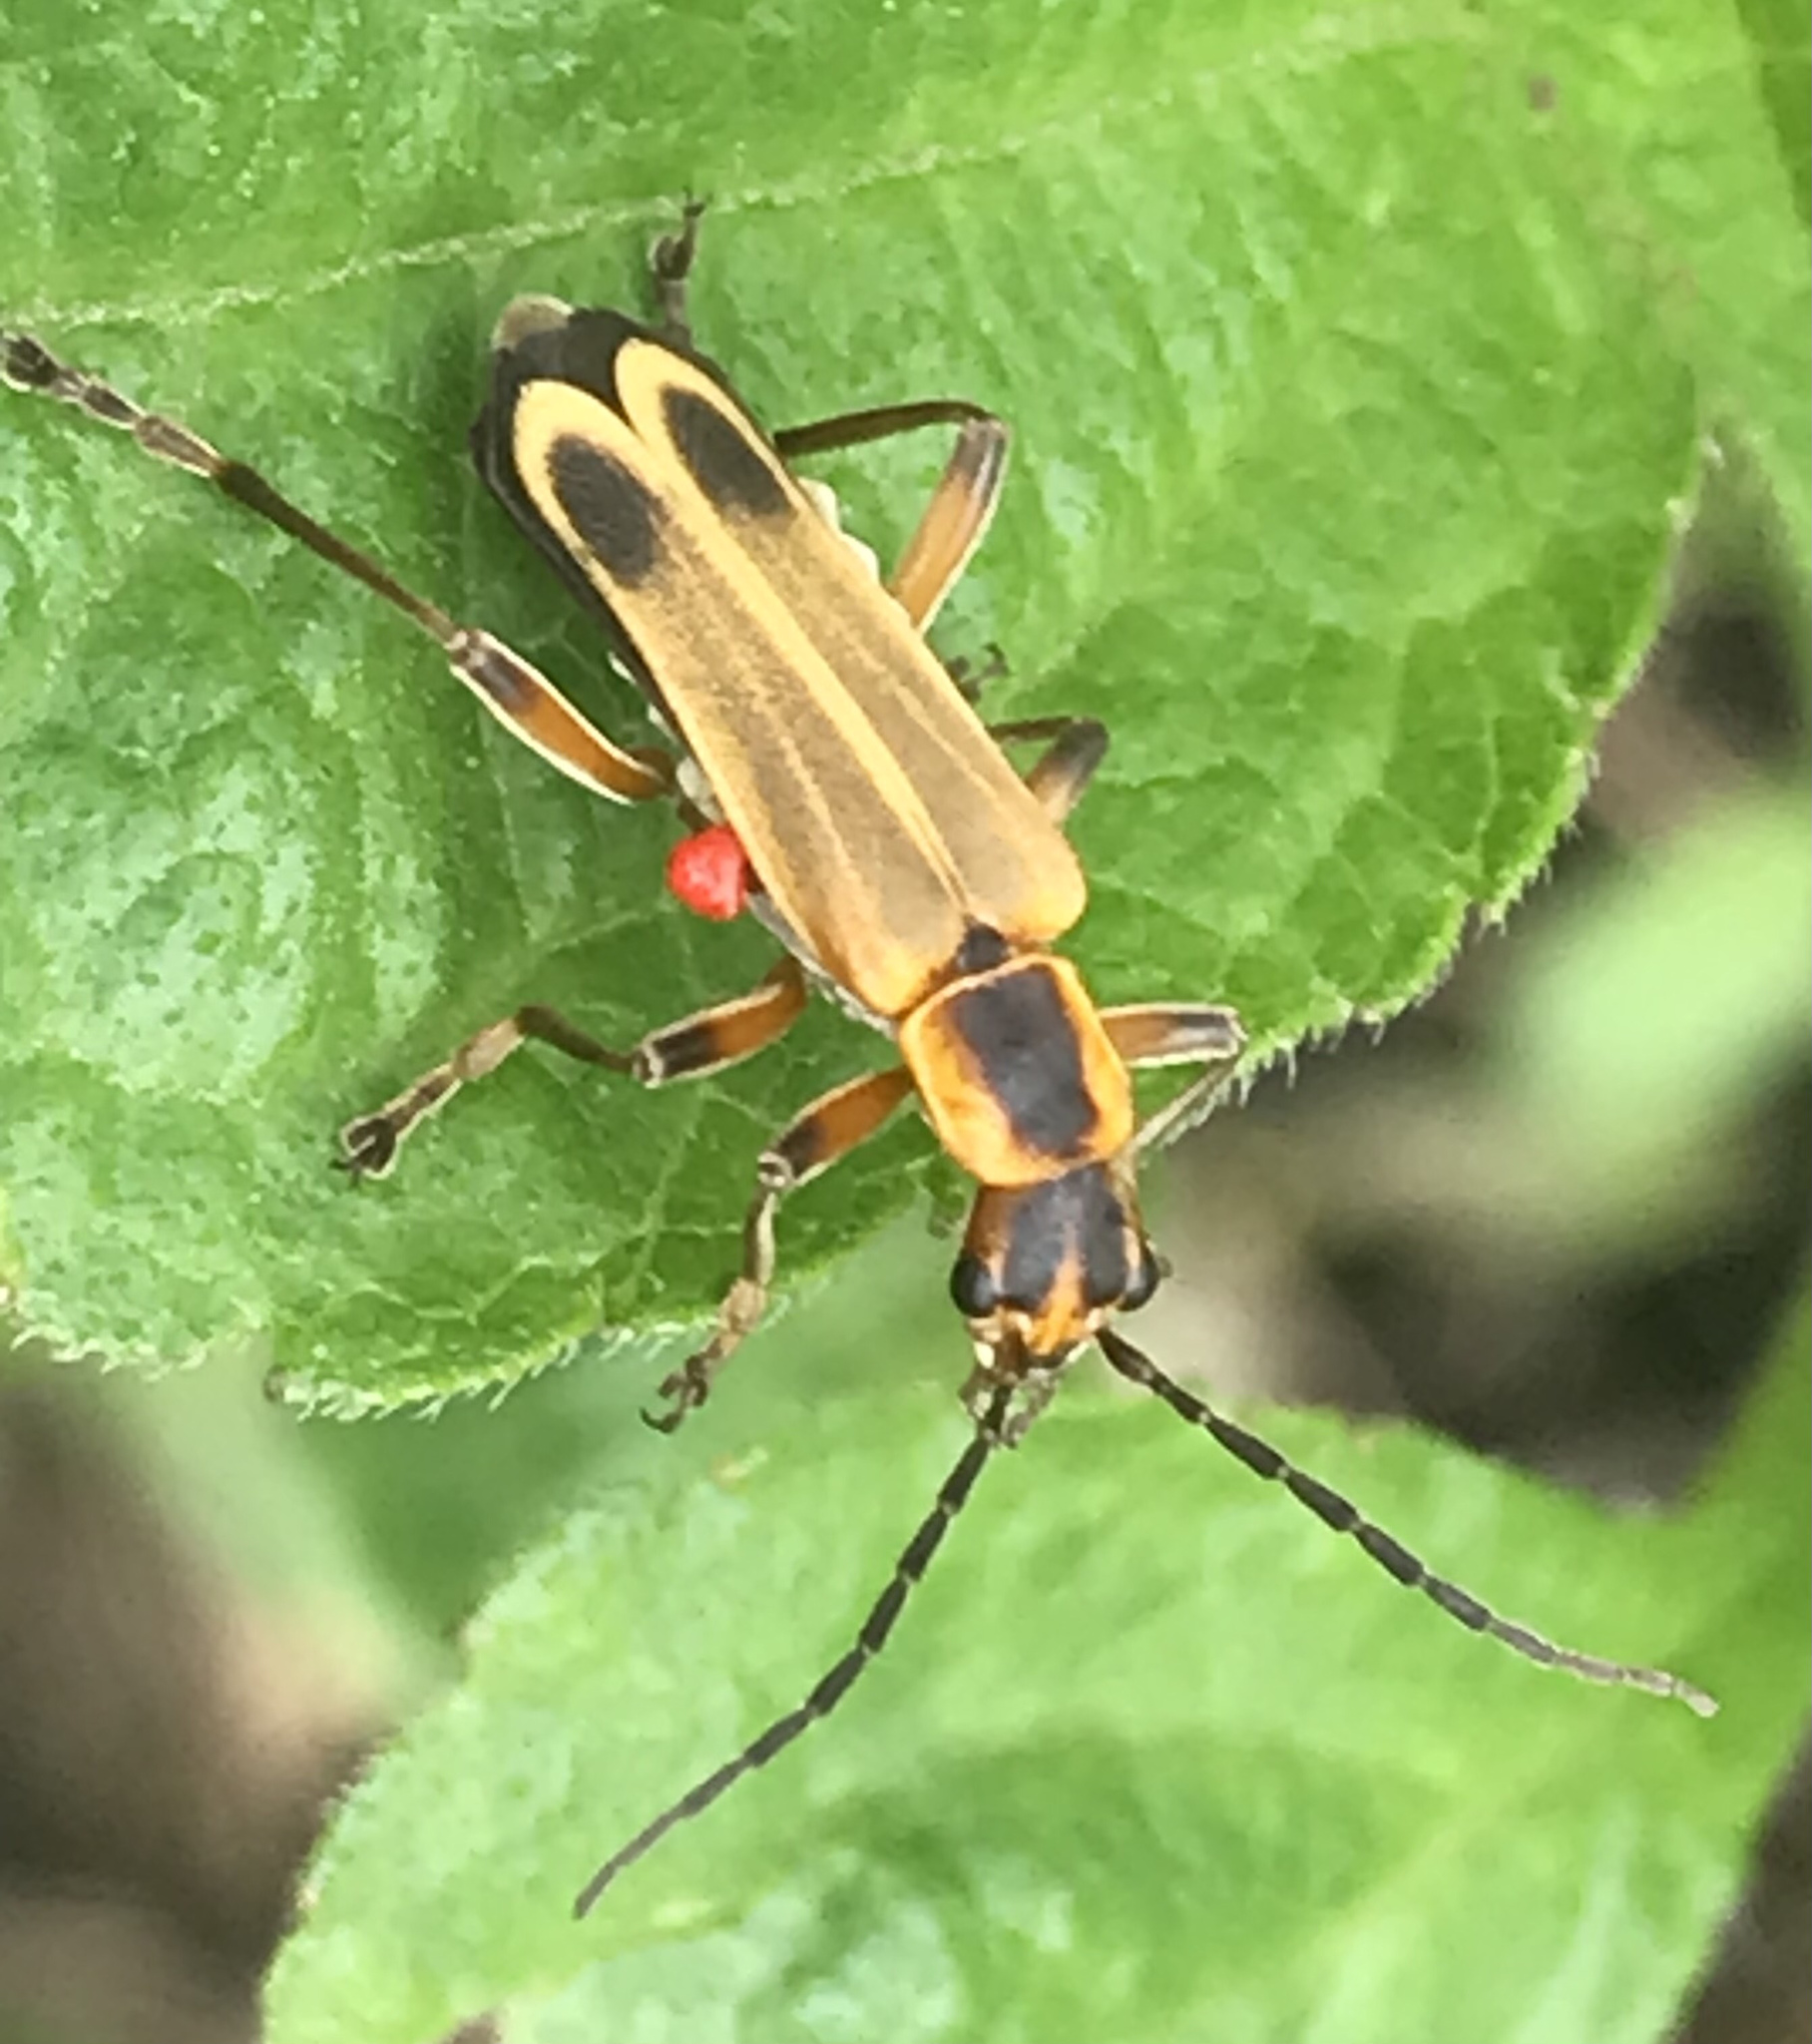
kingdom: Animalia
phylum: Arthropoda
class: Insecta
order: Coleoptera
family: Cantharidae
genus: Chauliognathus
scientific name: Chauliognathus marginatus
